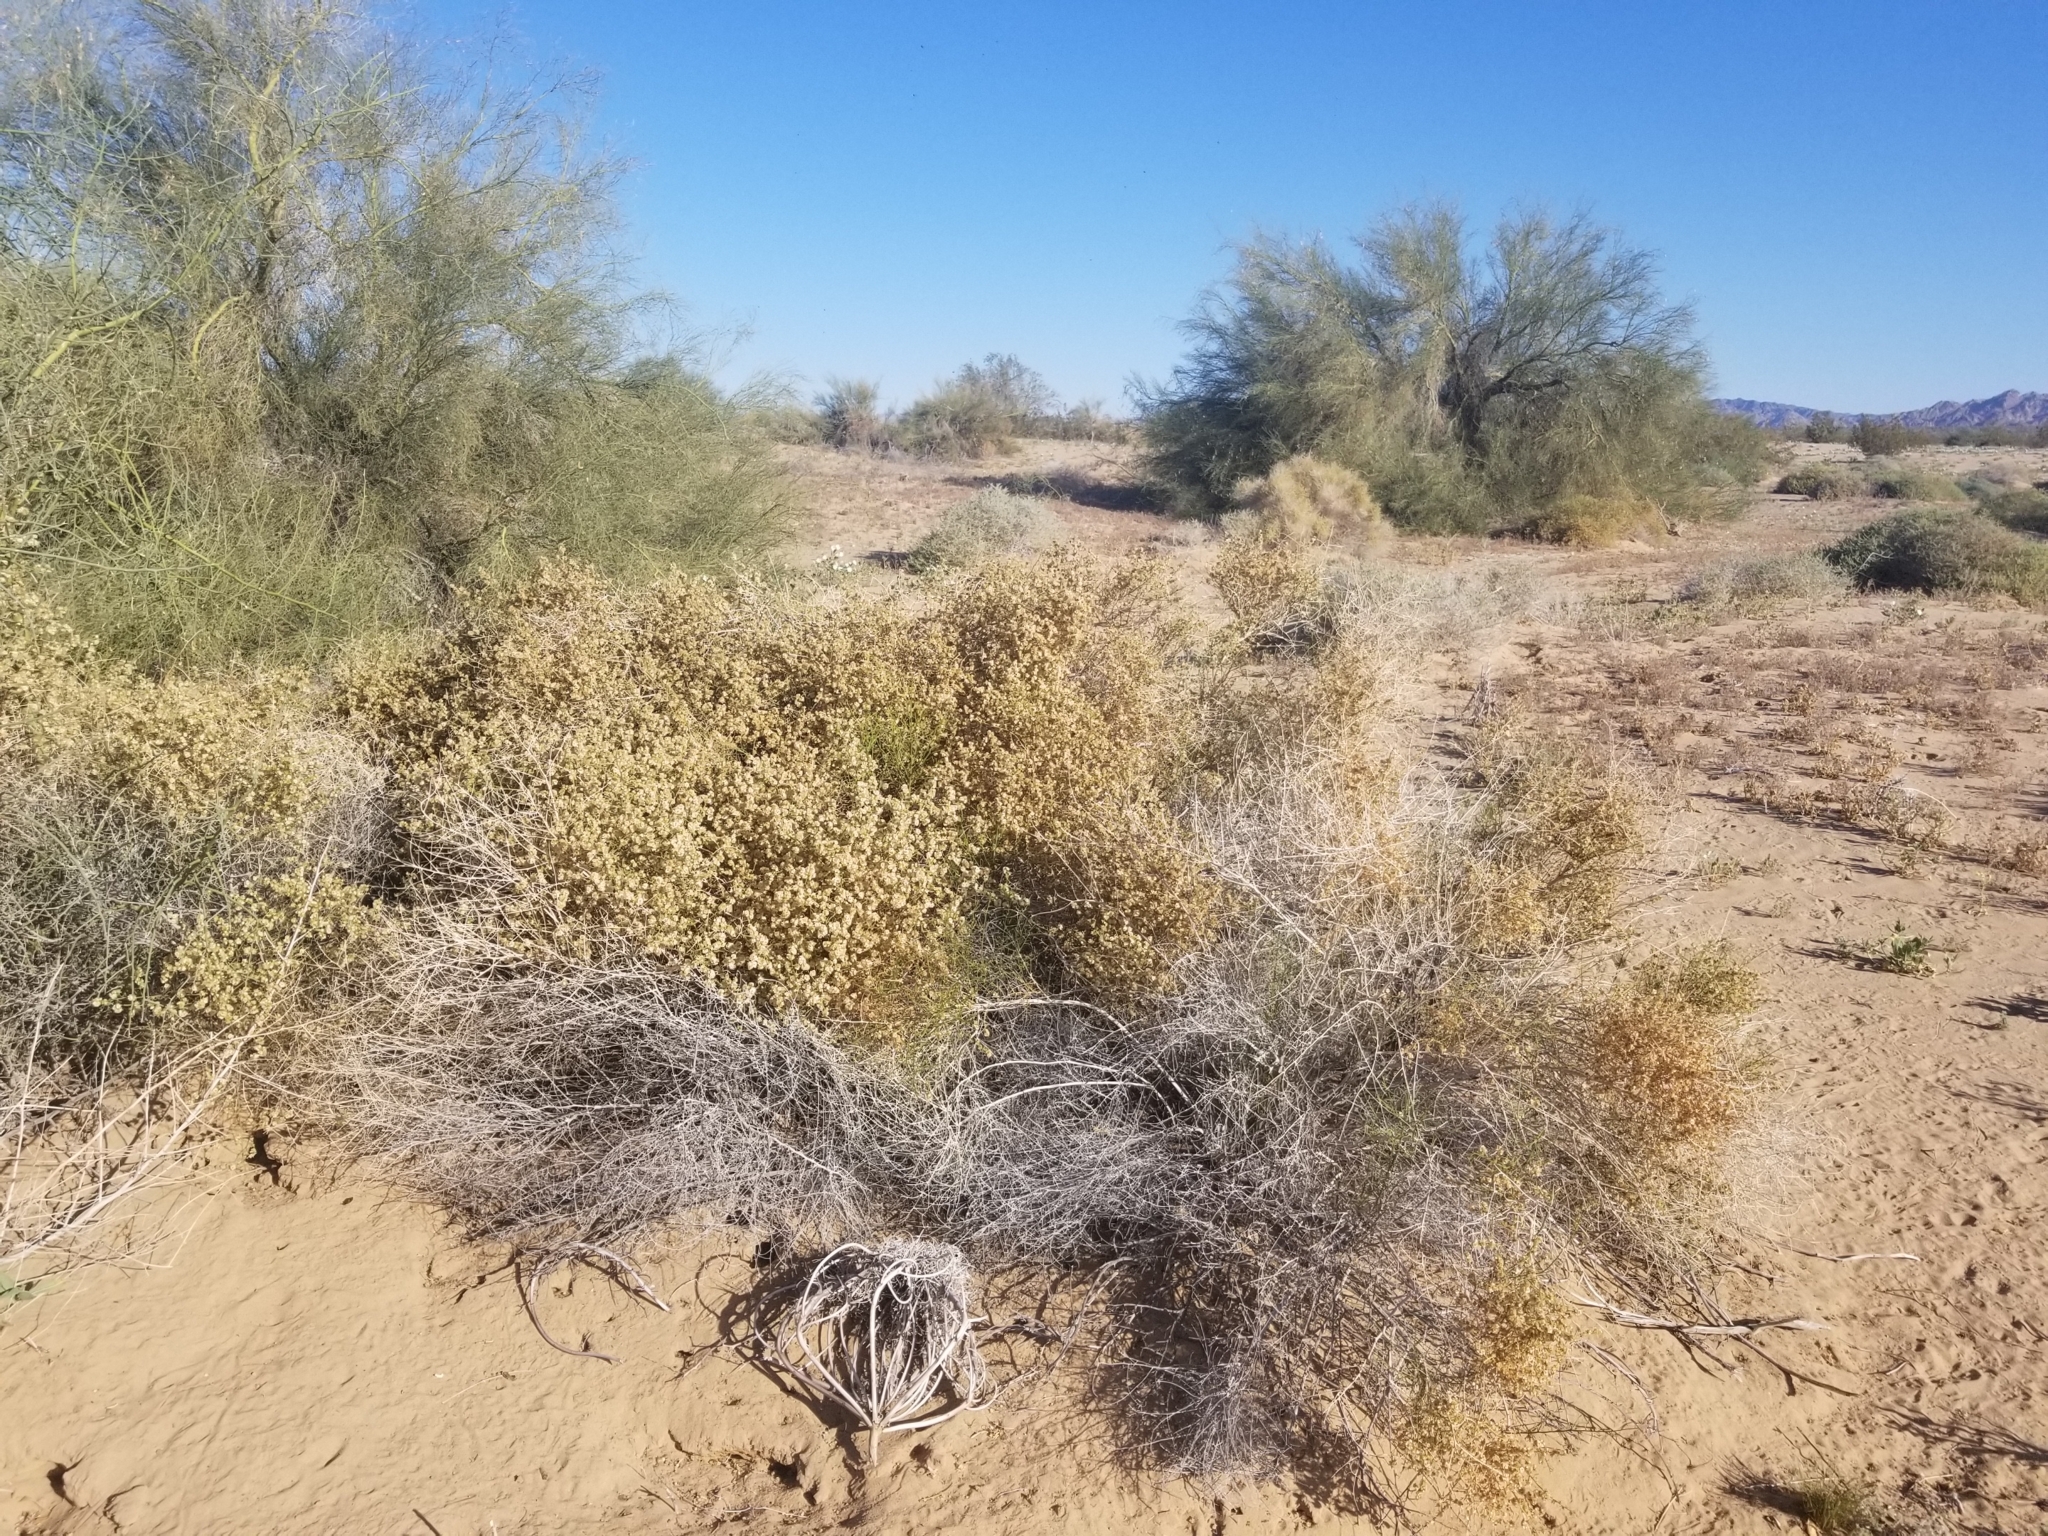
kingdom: Plantae
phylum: Tracheophyta
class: Magnoliopsida
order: Asterales
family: Asteraceae
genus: Ambrosia
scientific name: Ambrosia salsola
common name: Burrobrush
